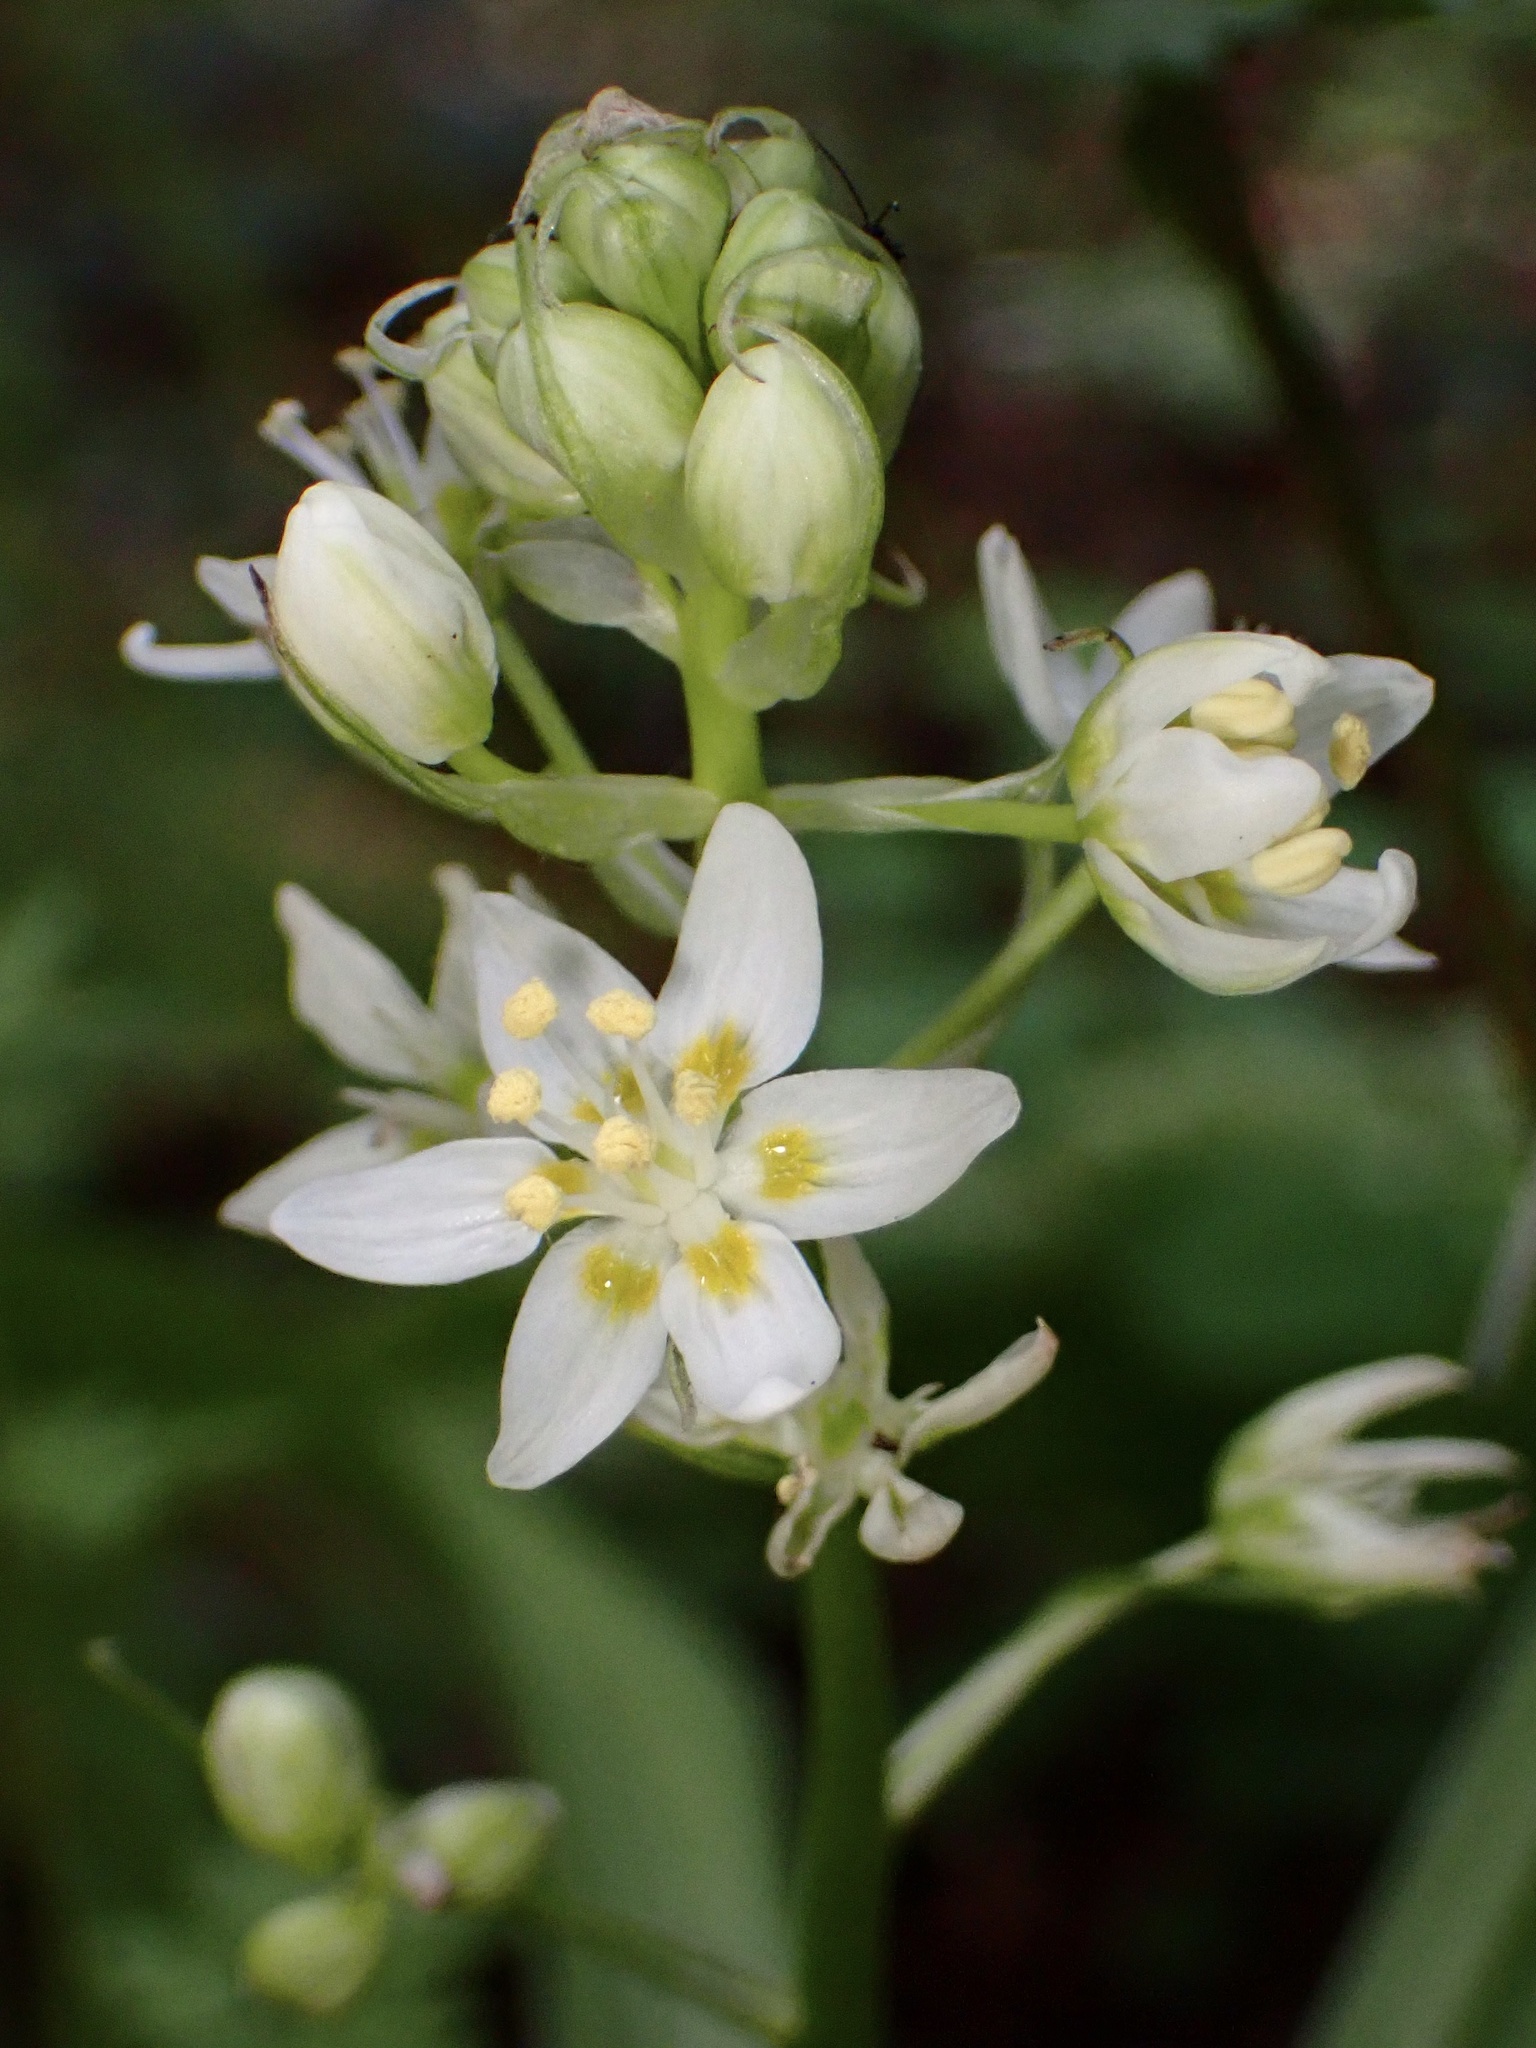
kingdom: Plantae
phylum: Tracheophyta
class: Liliopsida
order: Liliales
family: Melanthiaceae
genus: Toxicoscordion
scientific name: Toxicoscordion fremontii
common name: Fremont's death camas
